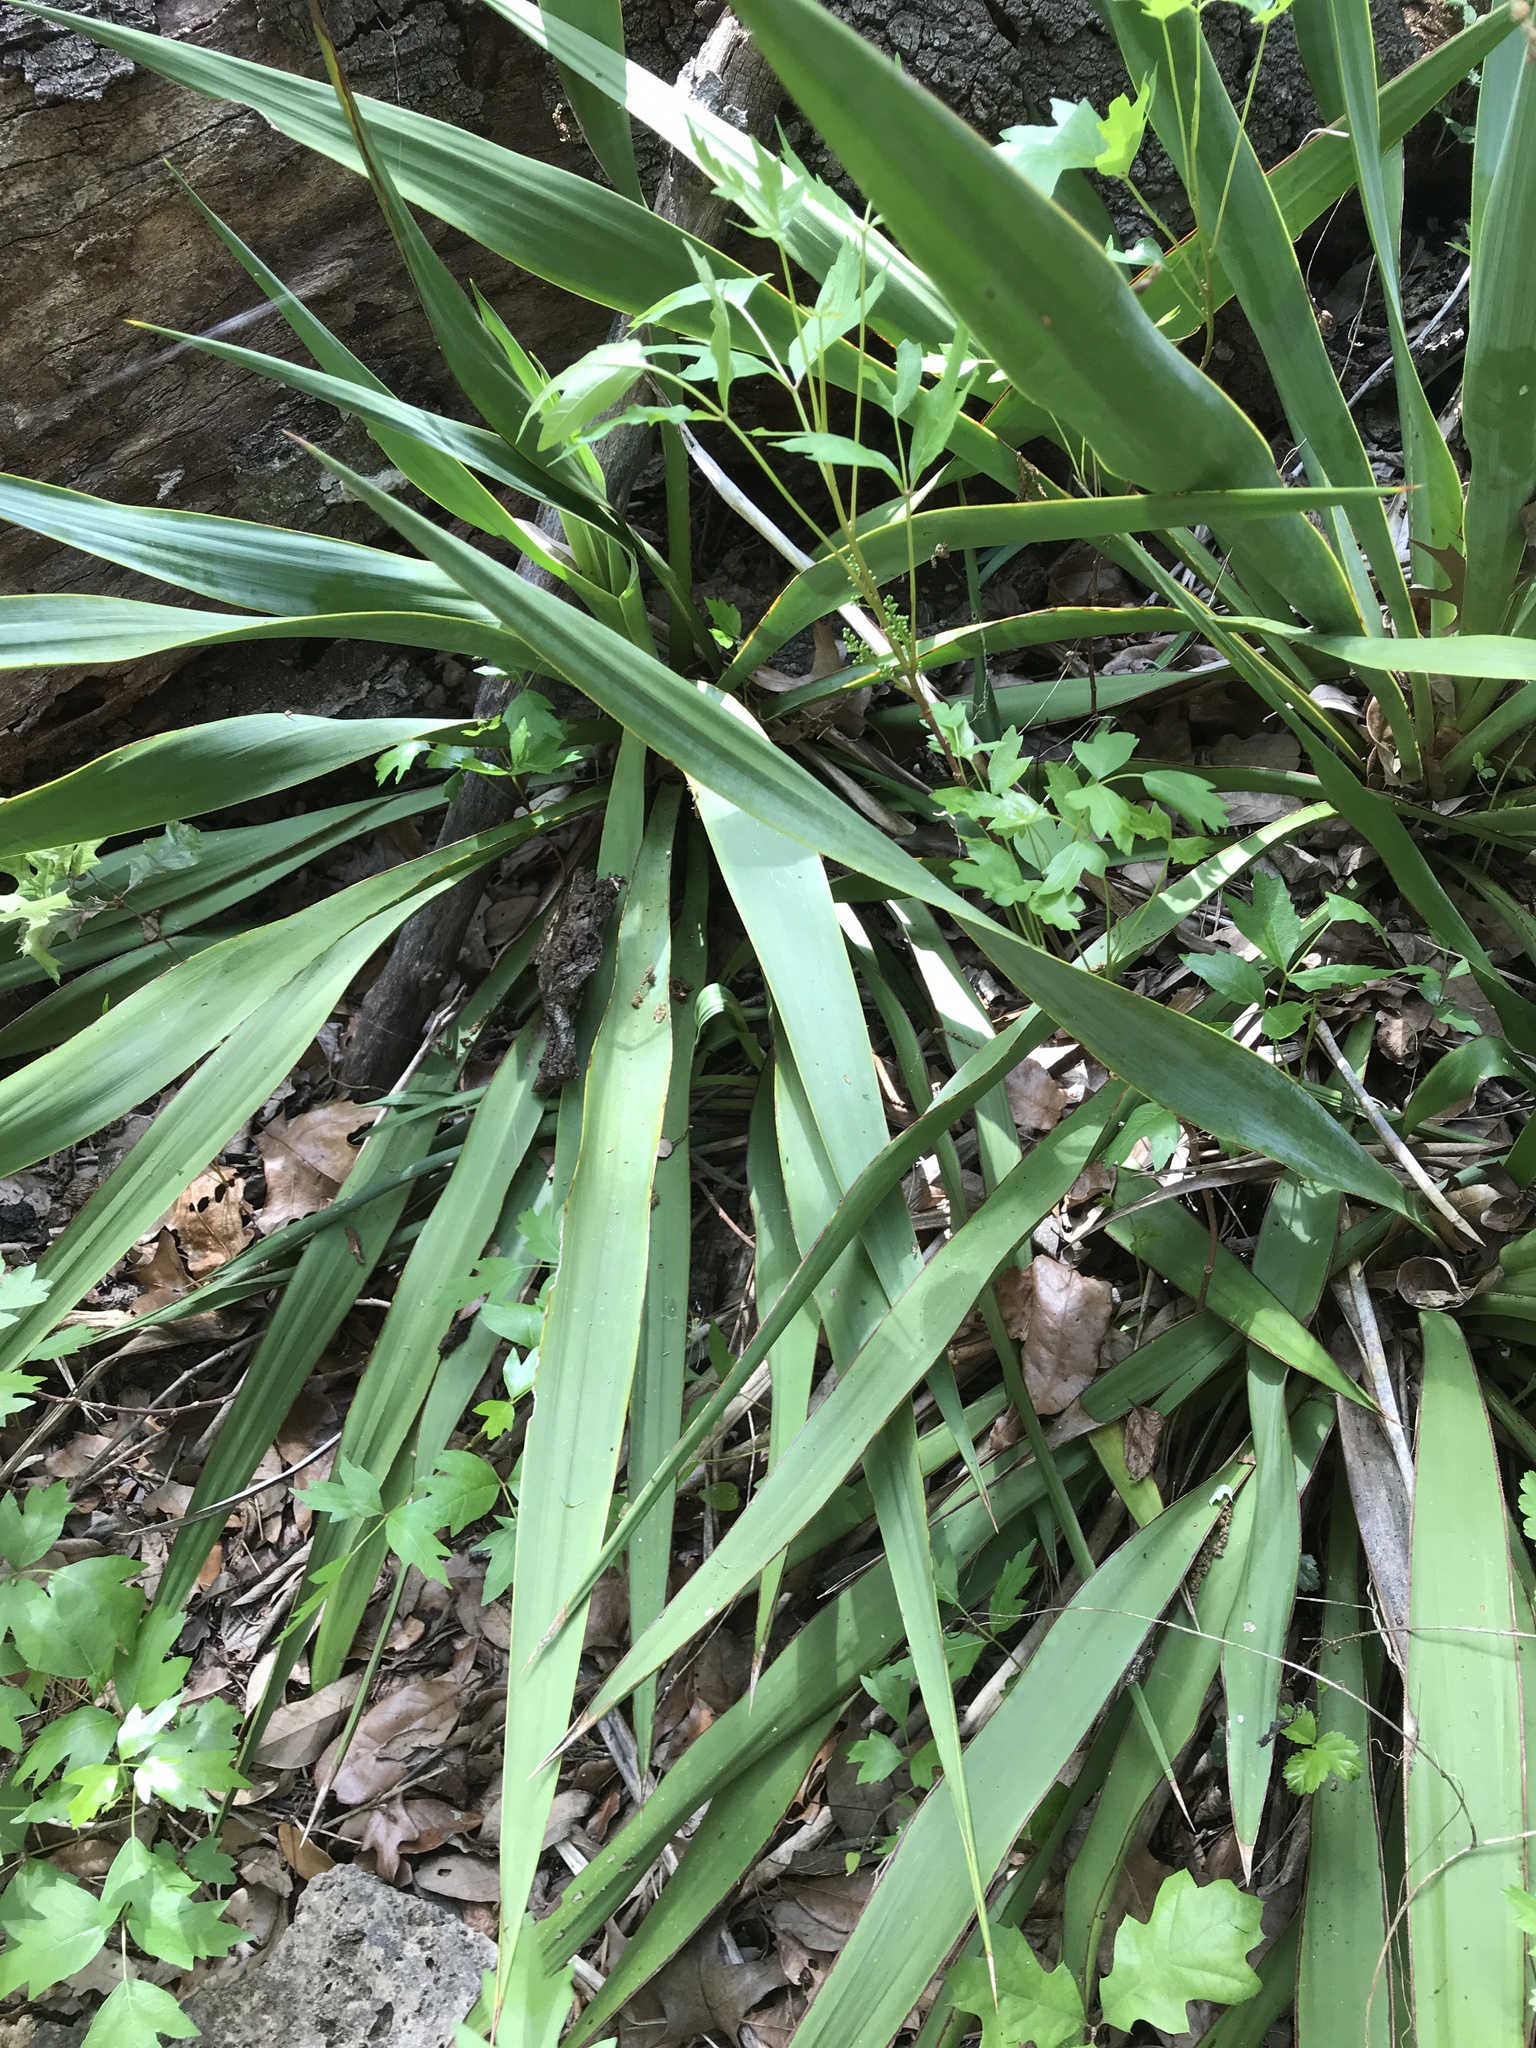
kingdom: Plantae
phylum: Tracheophyta
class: Liliopsida
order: Asparagales
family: Asparagaceae
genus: Yucca
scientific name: Yucca rupicola
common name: Twisted-leaf spanish-dagger
